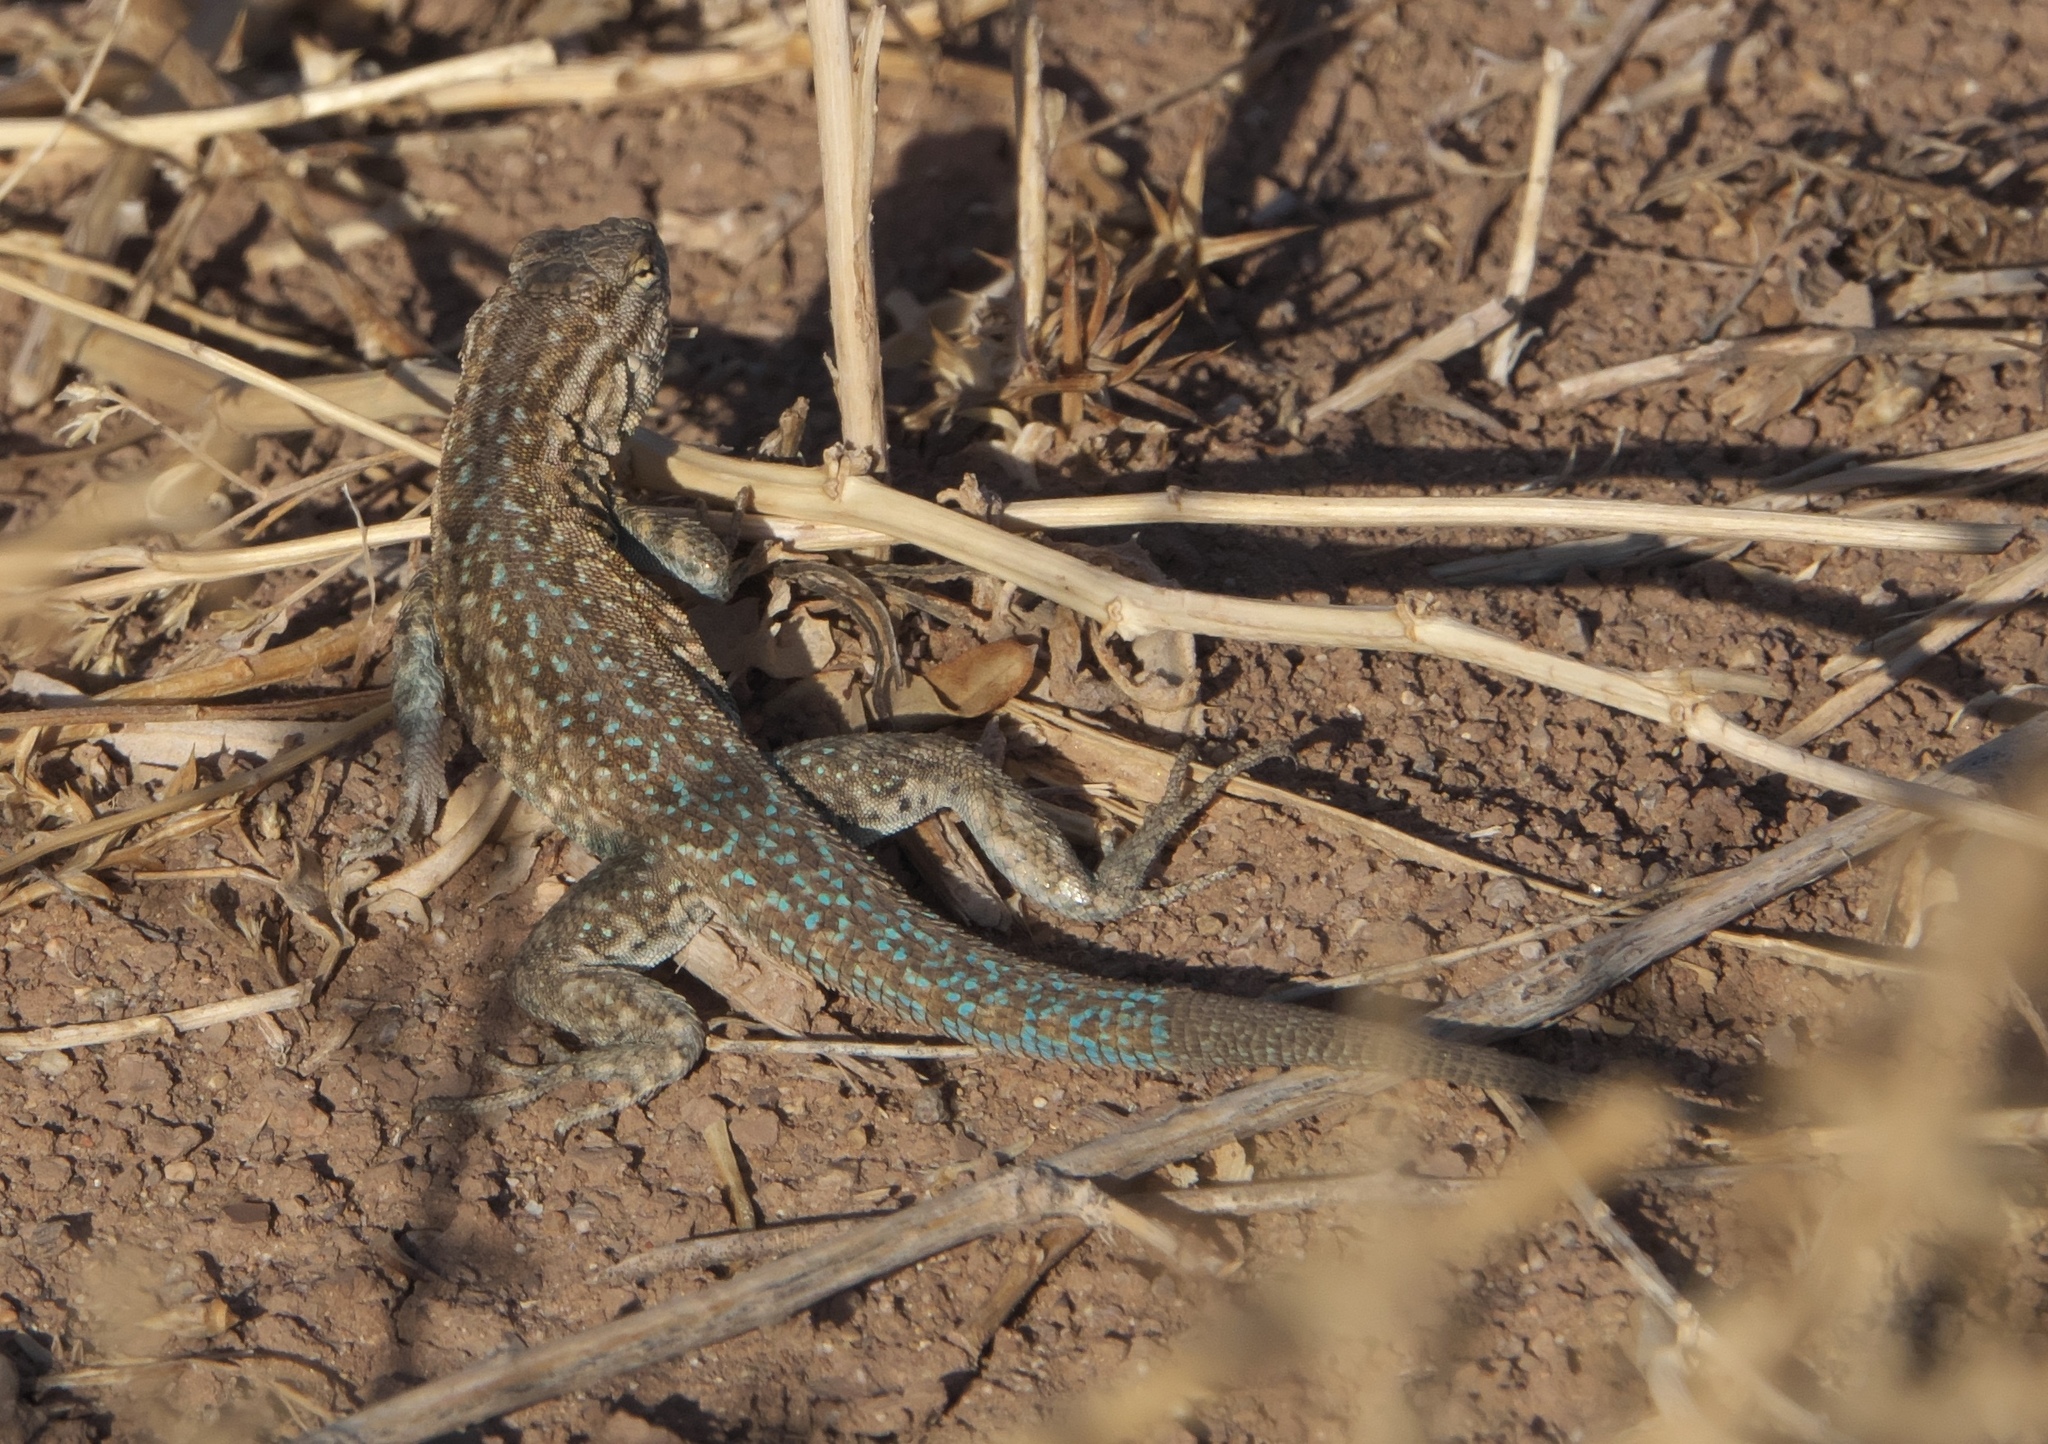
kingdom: Animalia
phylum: Chordata
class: Squamata
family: Phrynosomatidae
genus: Uta
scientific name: Uta stansburiana
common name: Side-blotched lizard
